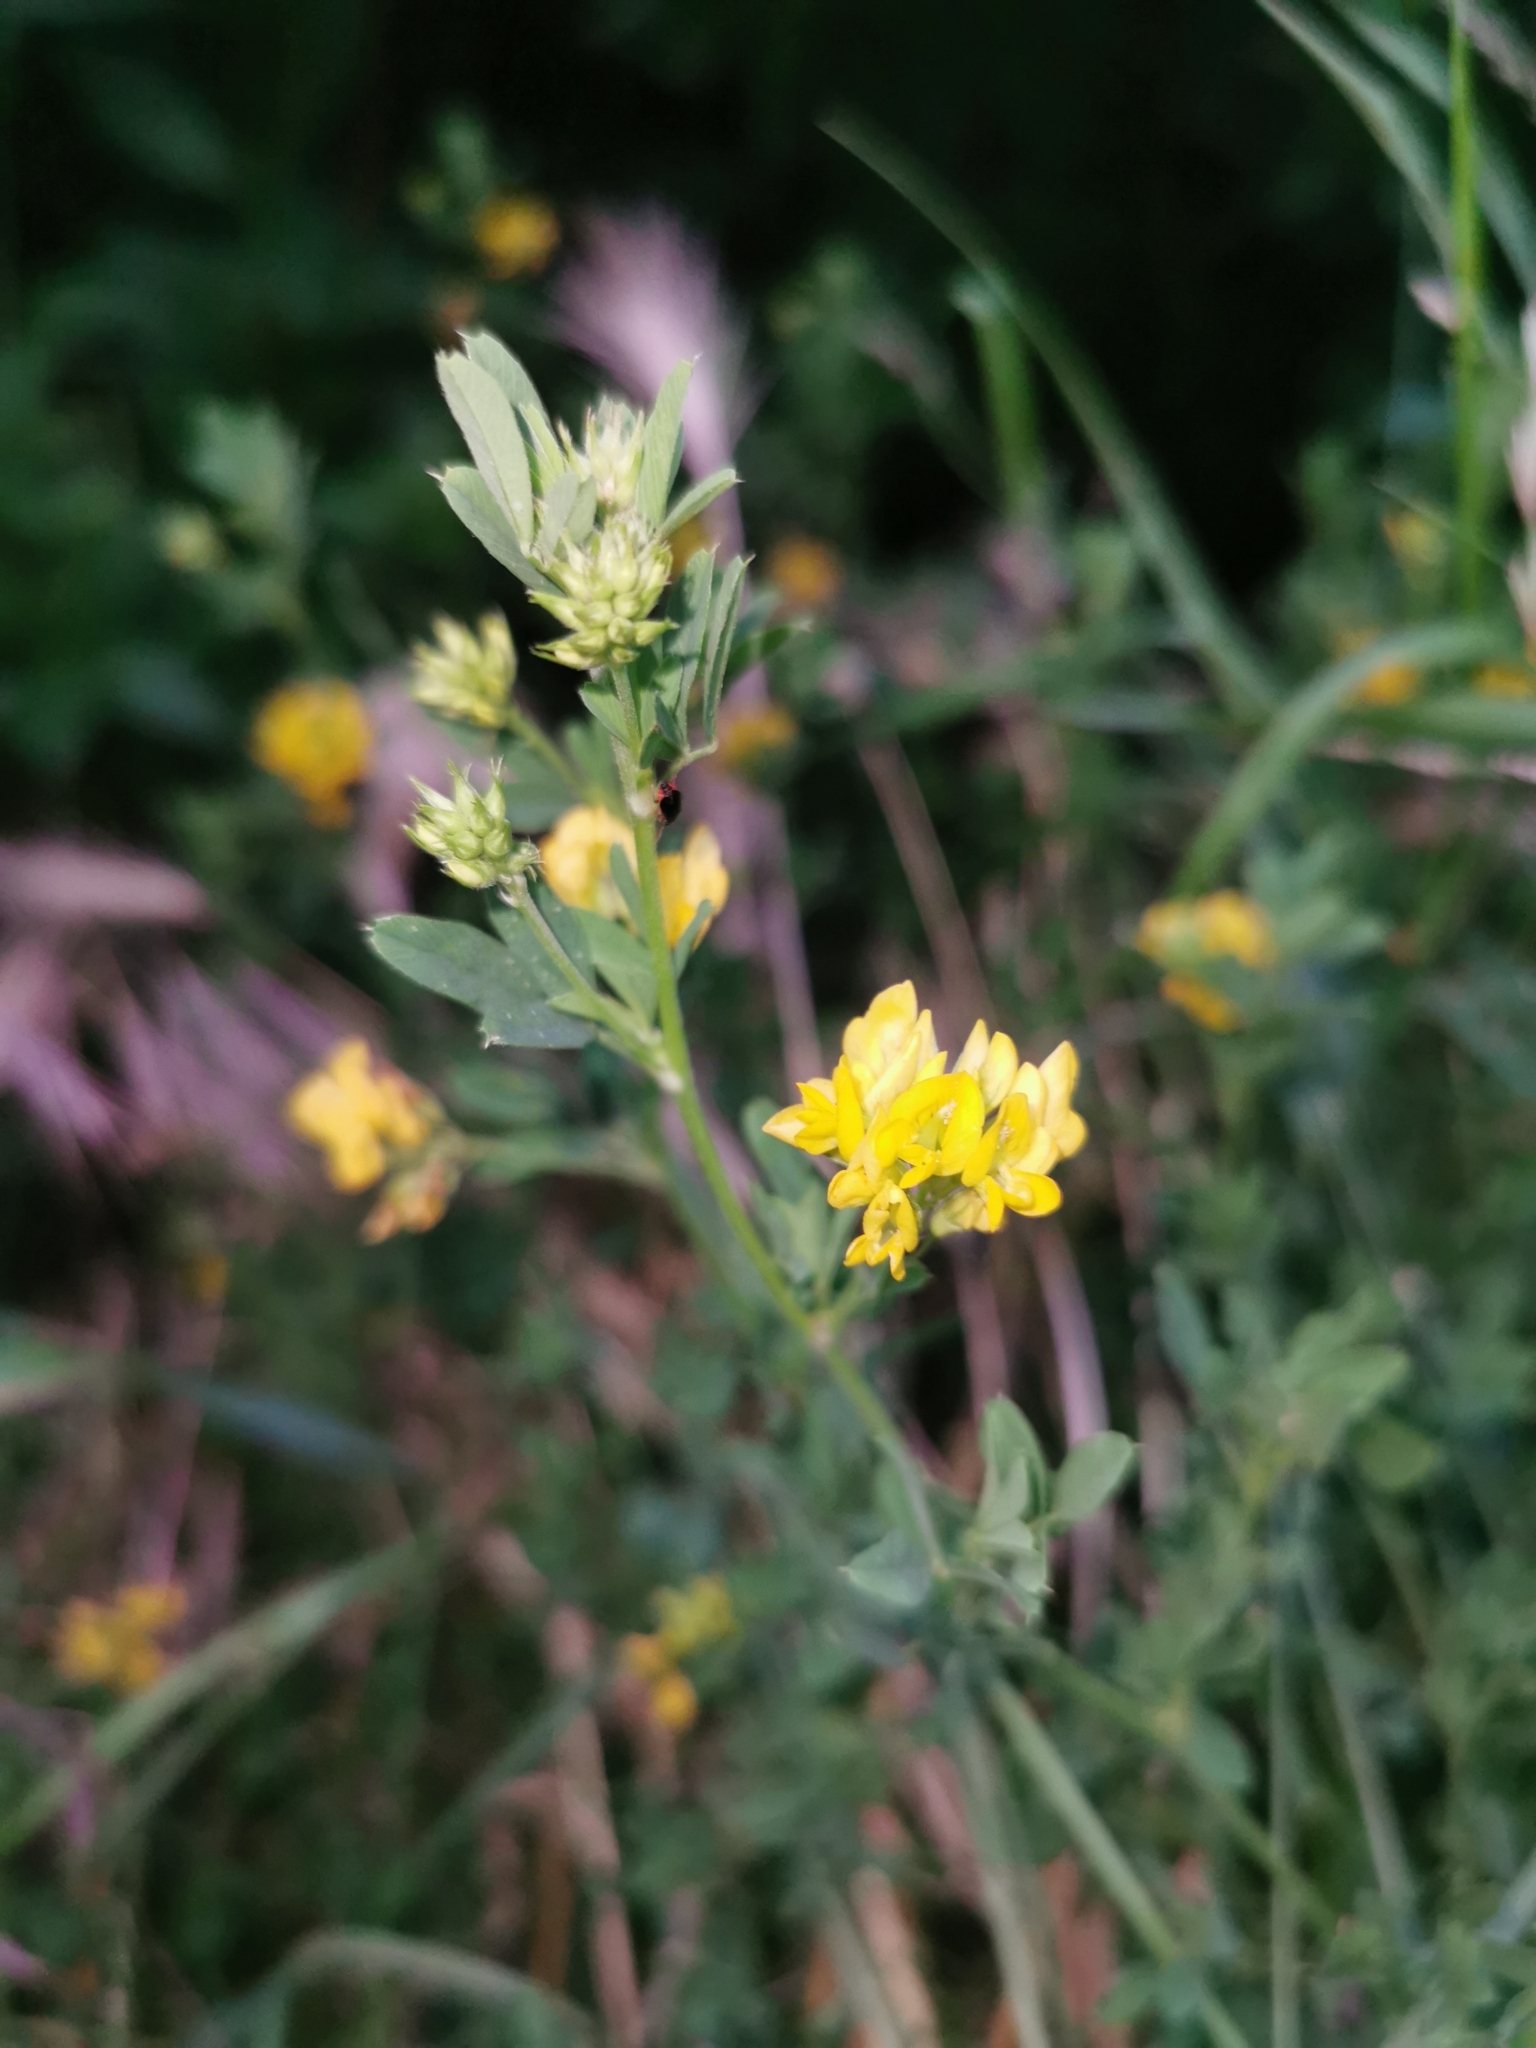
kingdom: Plantae
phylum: Tracheophyta
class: Magnoliopsida
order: Fabales
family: Fabaceae
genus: Medicago
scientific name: Medicago falcata
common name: Sickle medick
